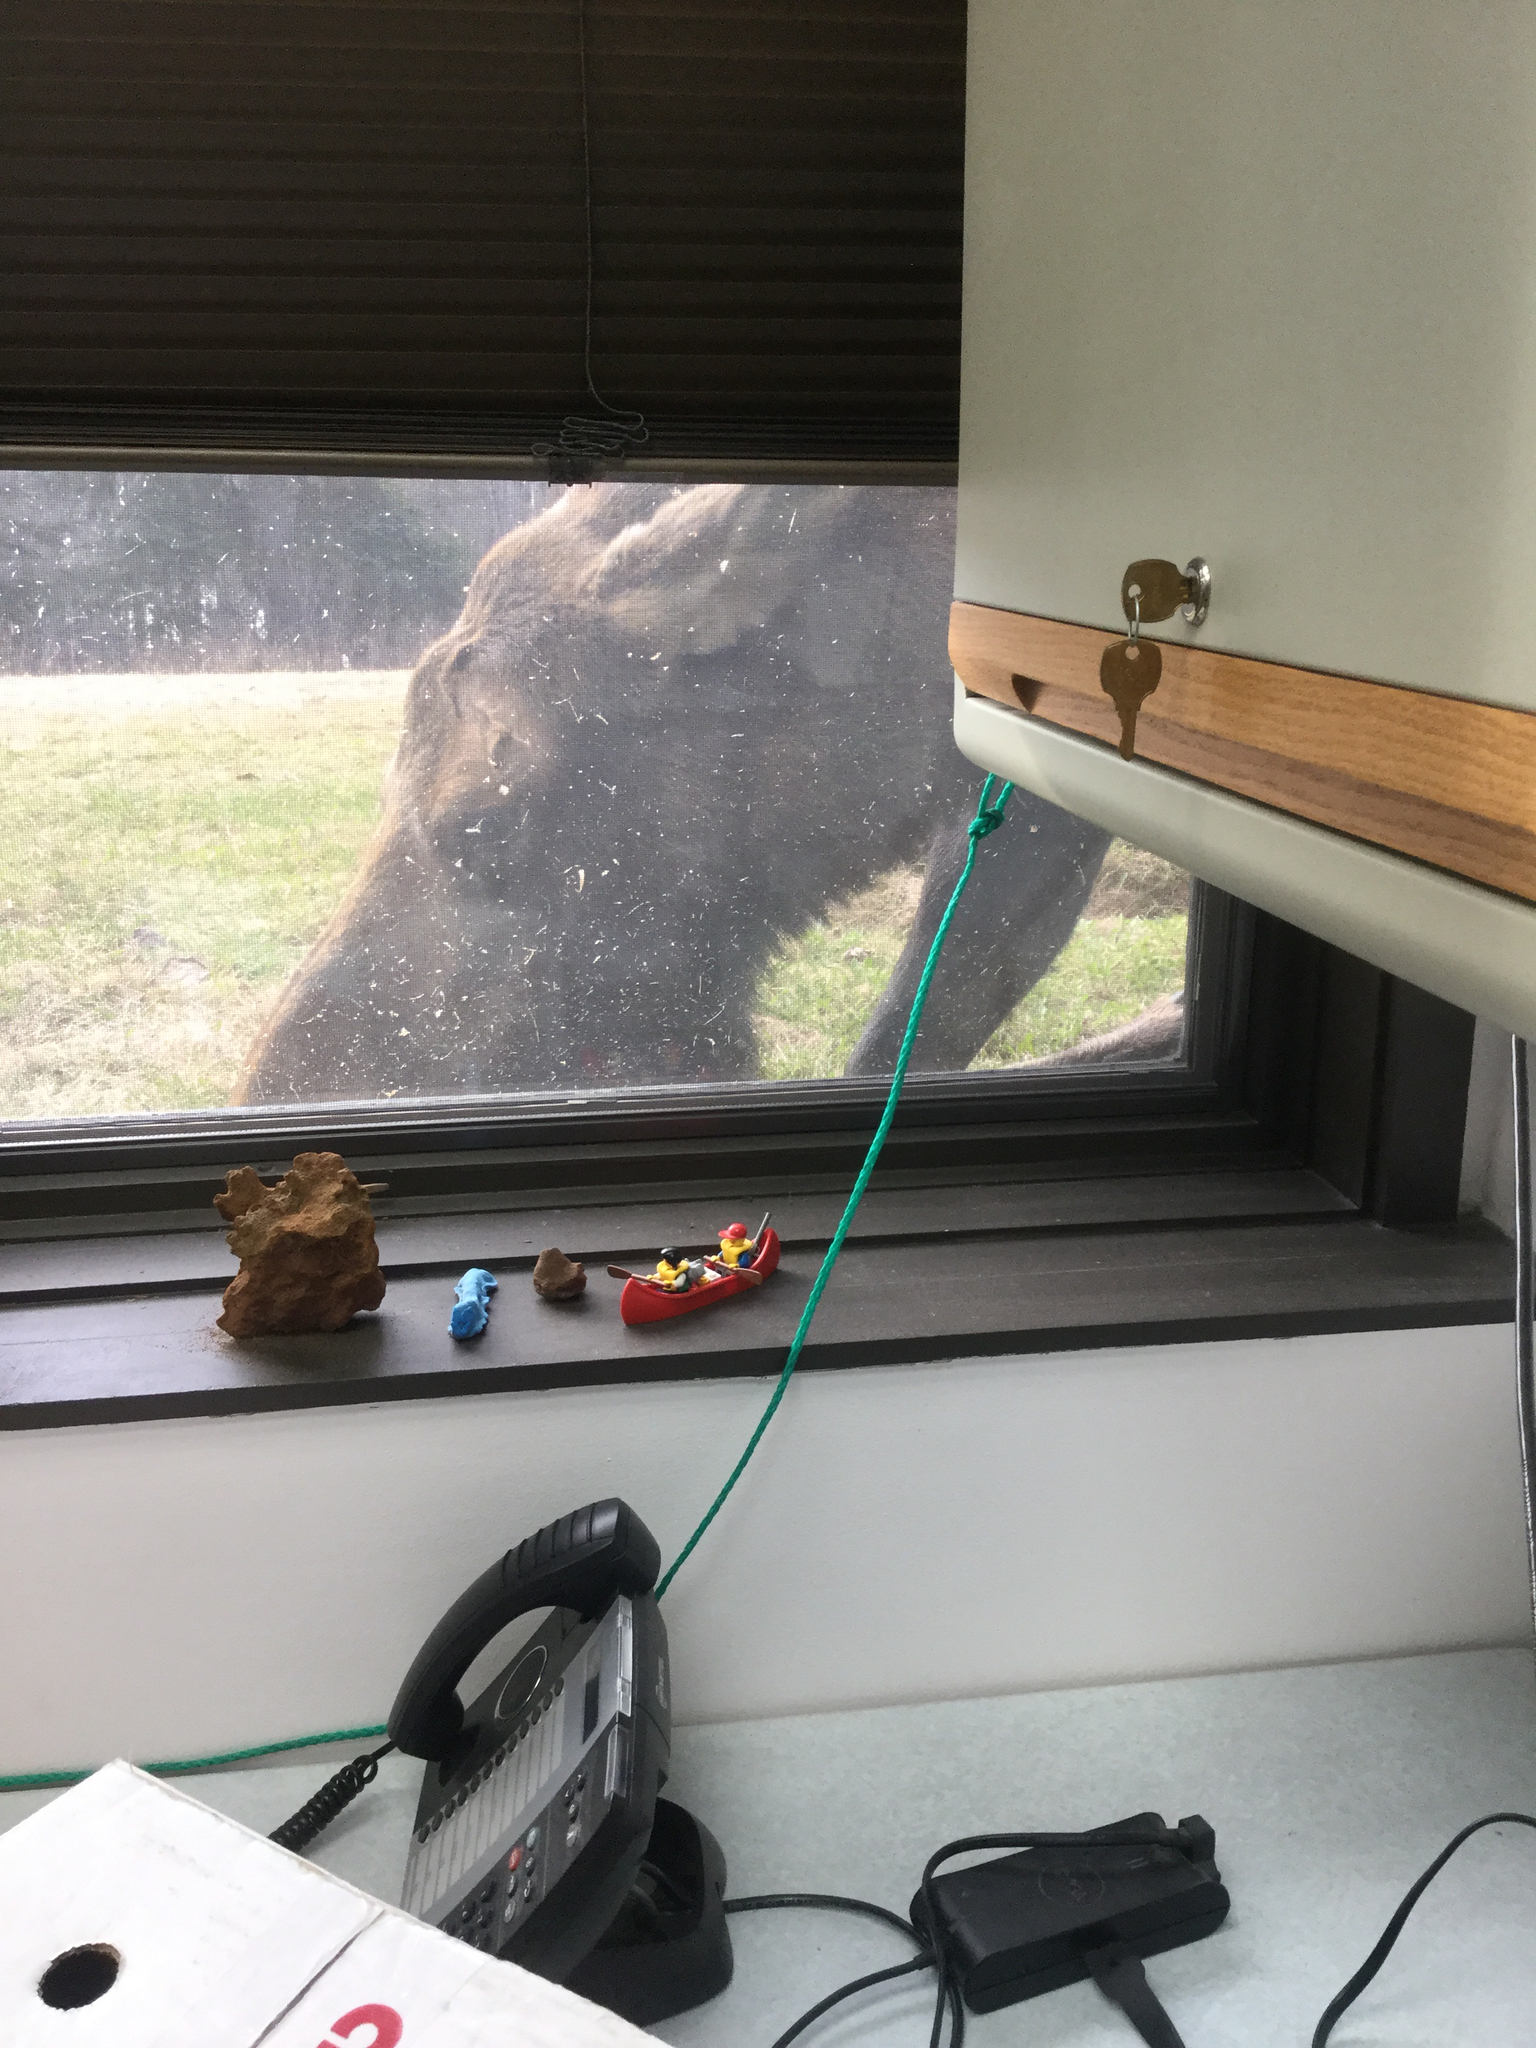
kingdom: Animalia
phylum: Chordata
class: Mammalia
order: Artiodactyla
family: Cervidae
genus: Alces
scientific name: Alces alces
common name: Moose
